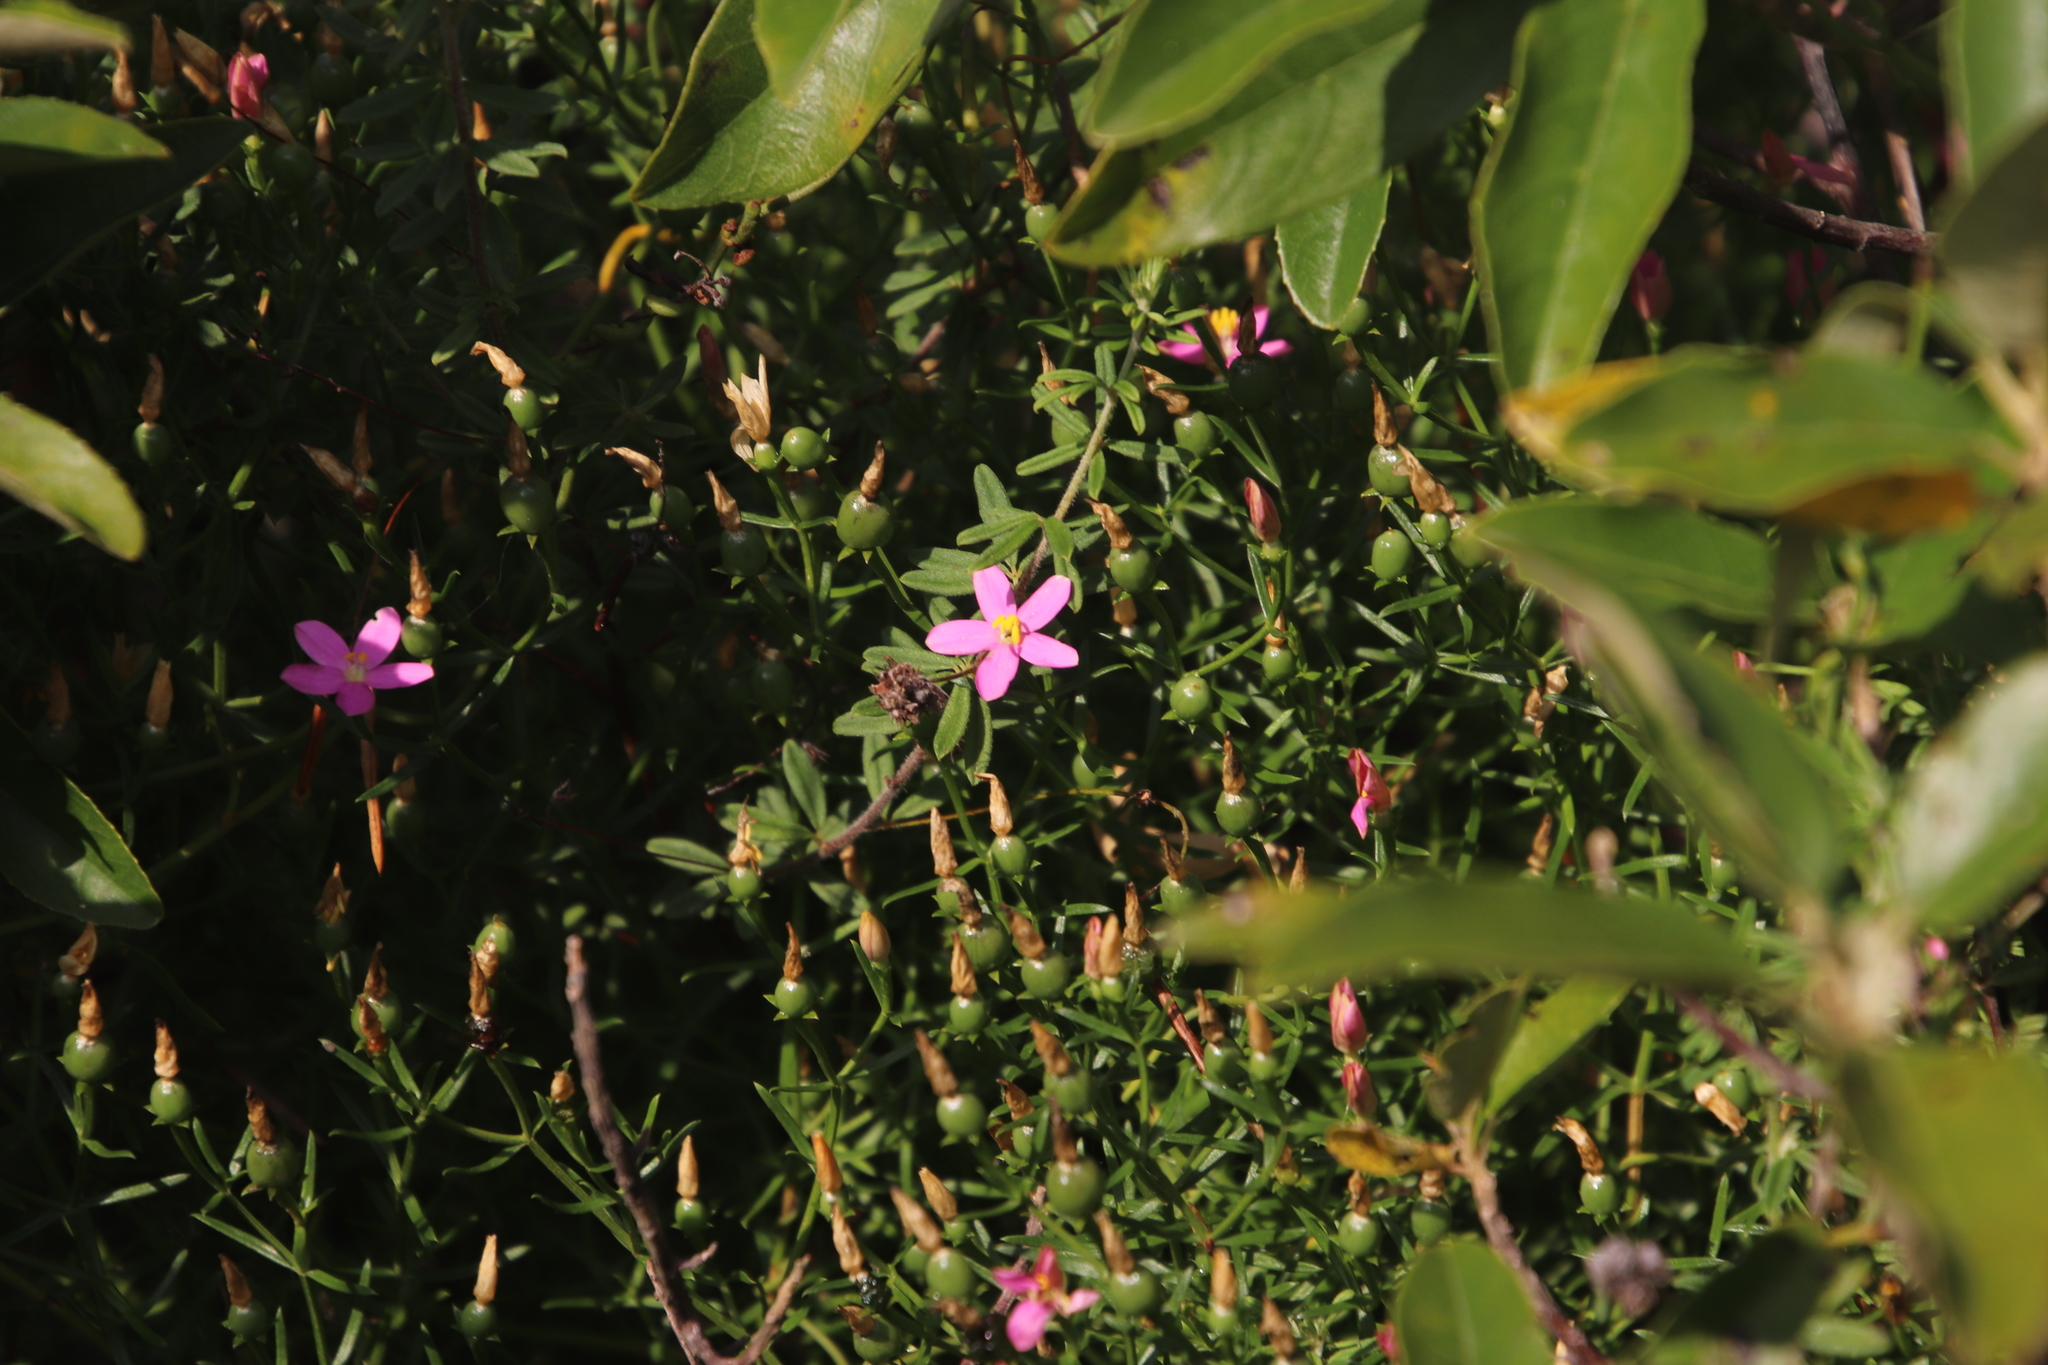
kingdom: Plantae
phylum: Tracheophyta
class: Magnoliopsida
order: Gentianales
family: Gentianaceae
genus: Chironia
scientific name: Chironia baccifera
